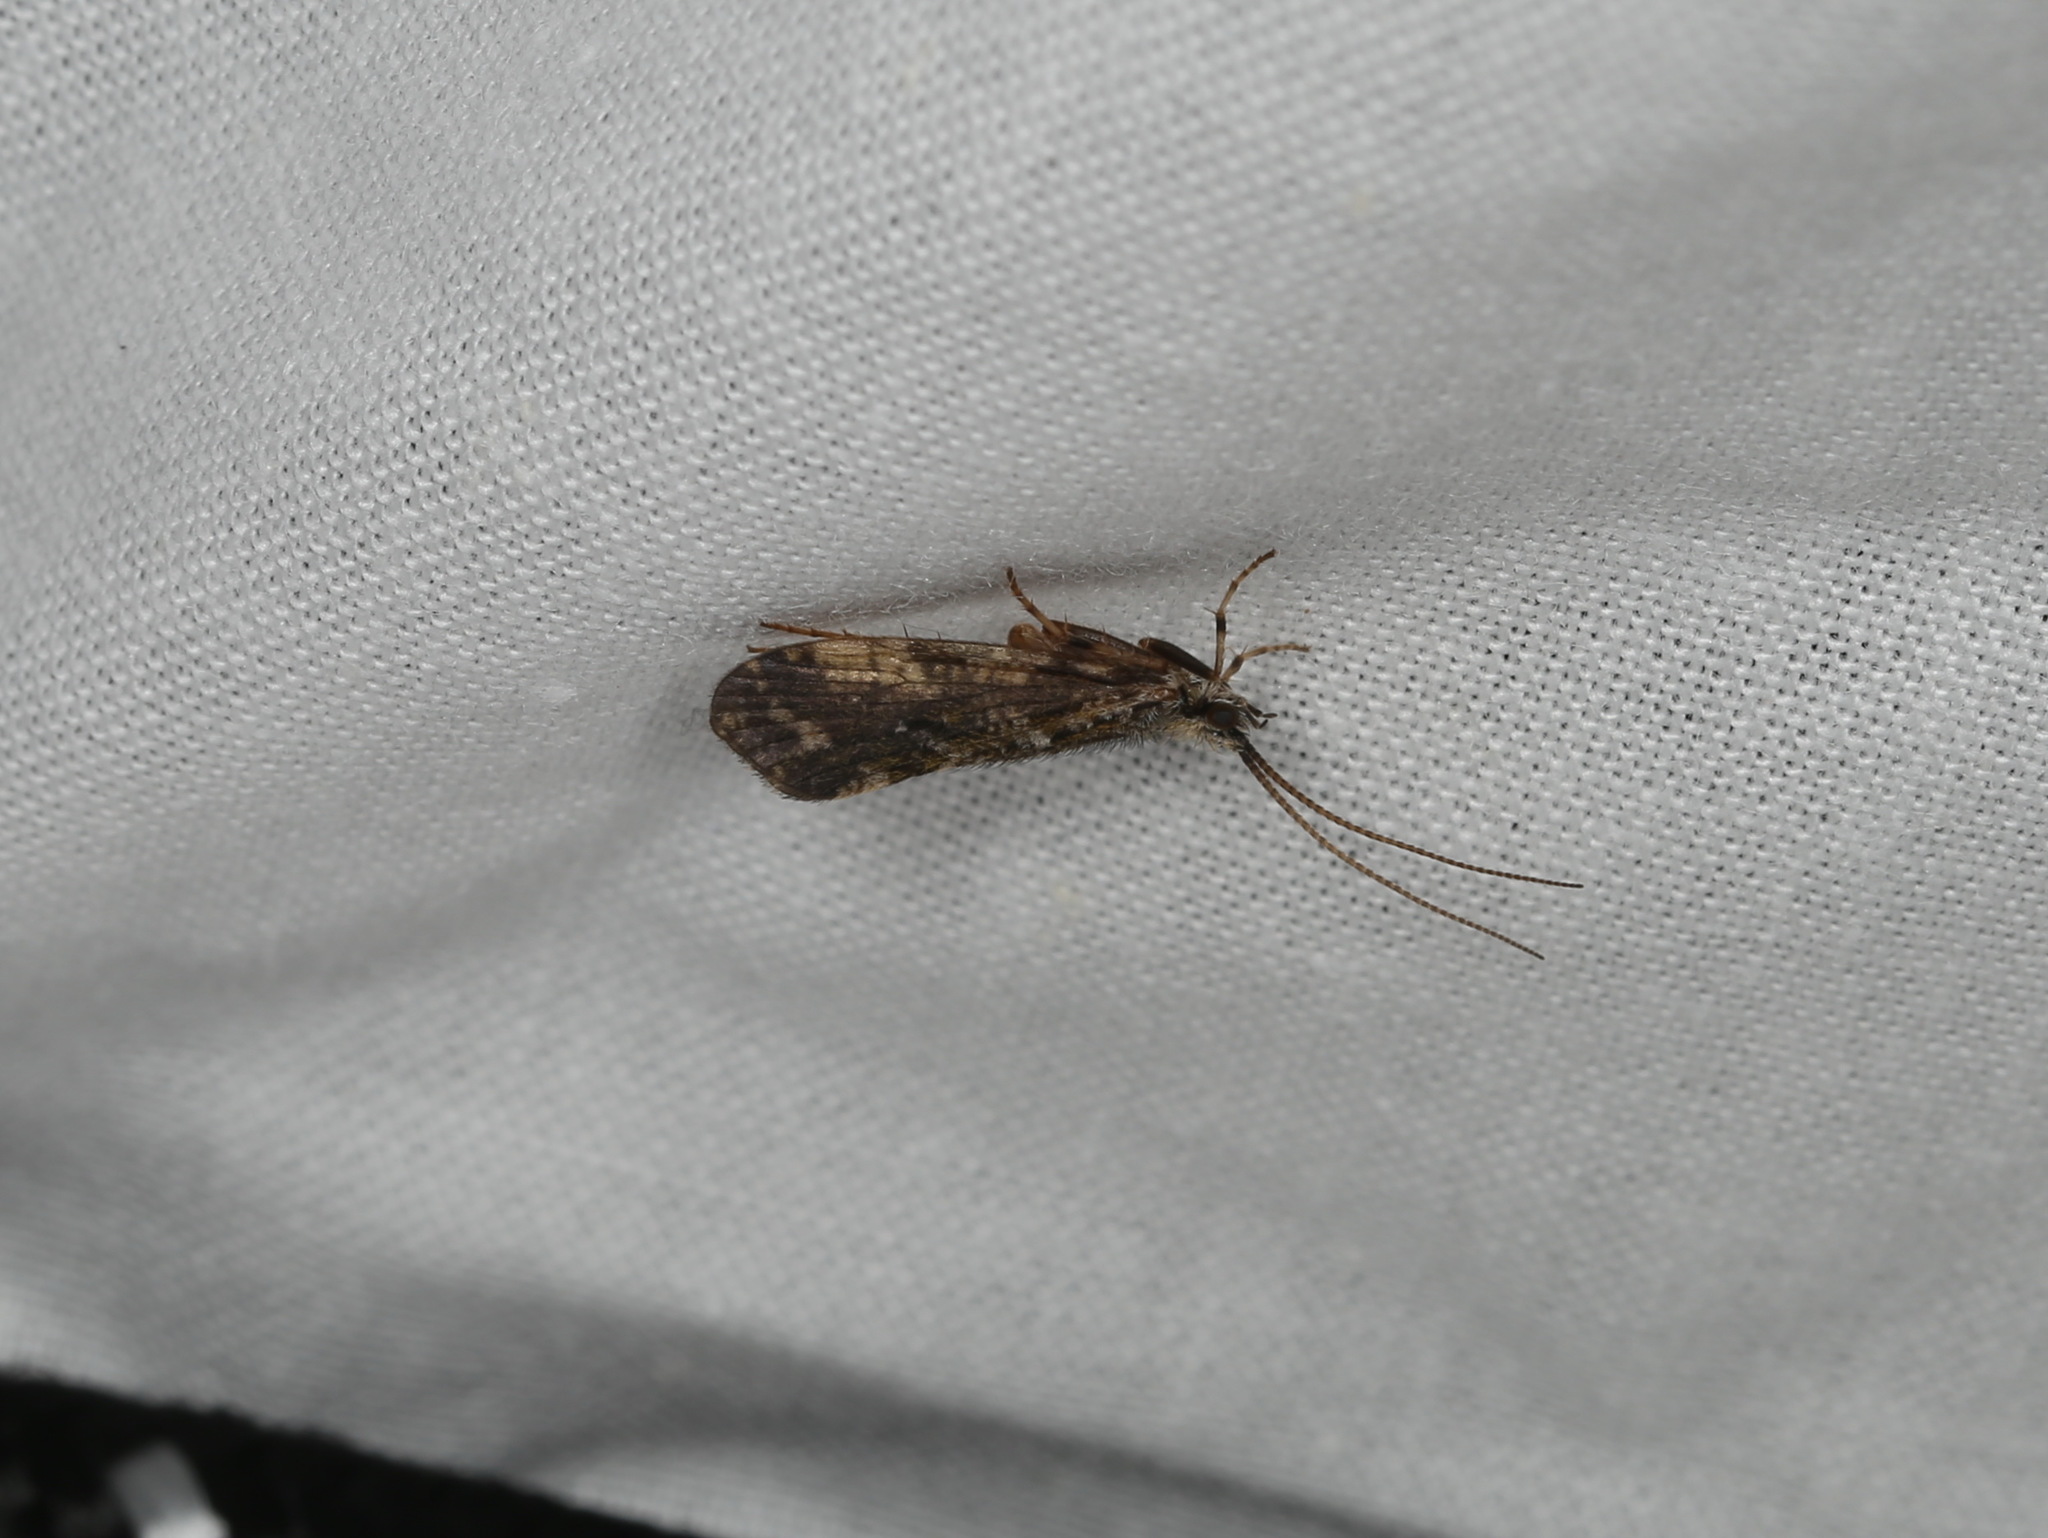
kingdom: Animalia
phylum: Arthropoda
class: Insecta
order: Trichoptera
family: Phryganeidae
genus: Trichostegia
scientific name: Trichostegia minor
